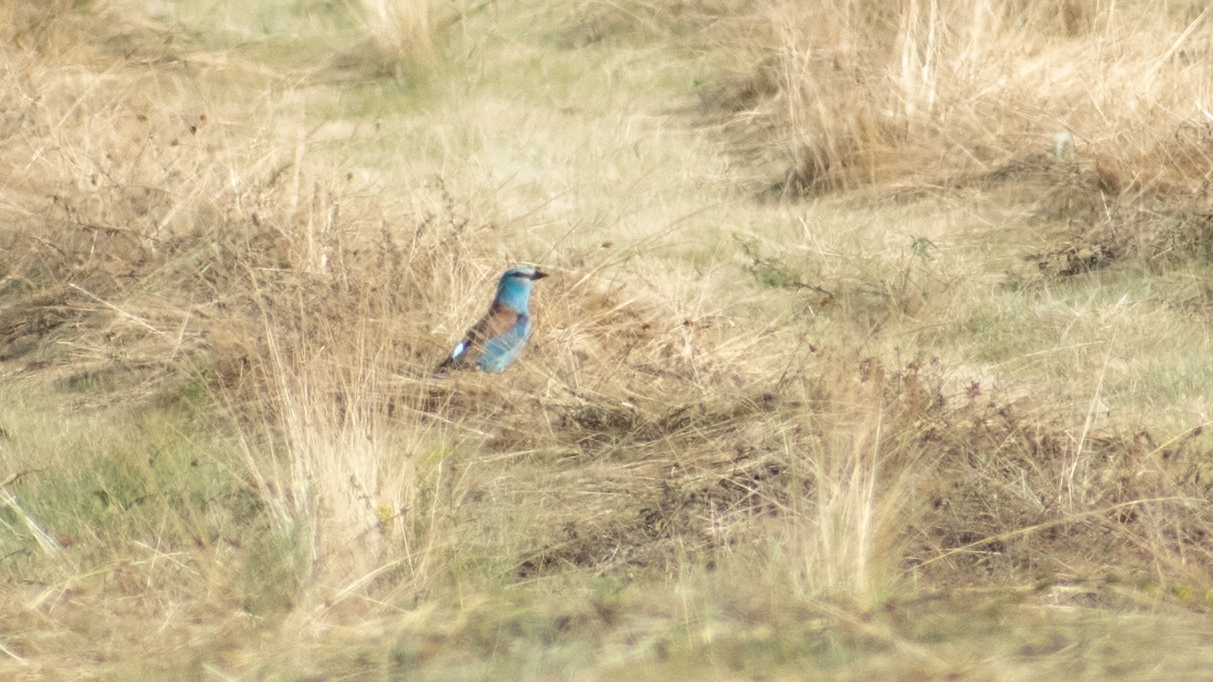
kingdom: Animalia
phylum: Chordata
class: Aves
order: Coraciiformes
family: Coraciidae
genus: Coracias
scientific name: Coracias garrulus
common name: European roller
